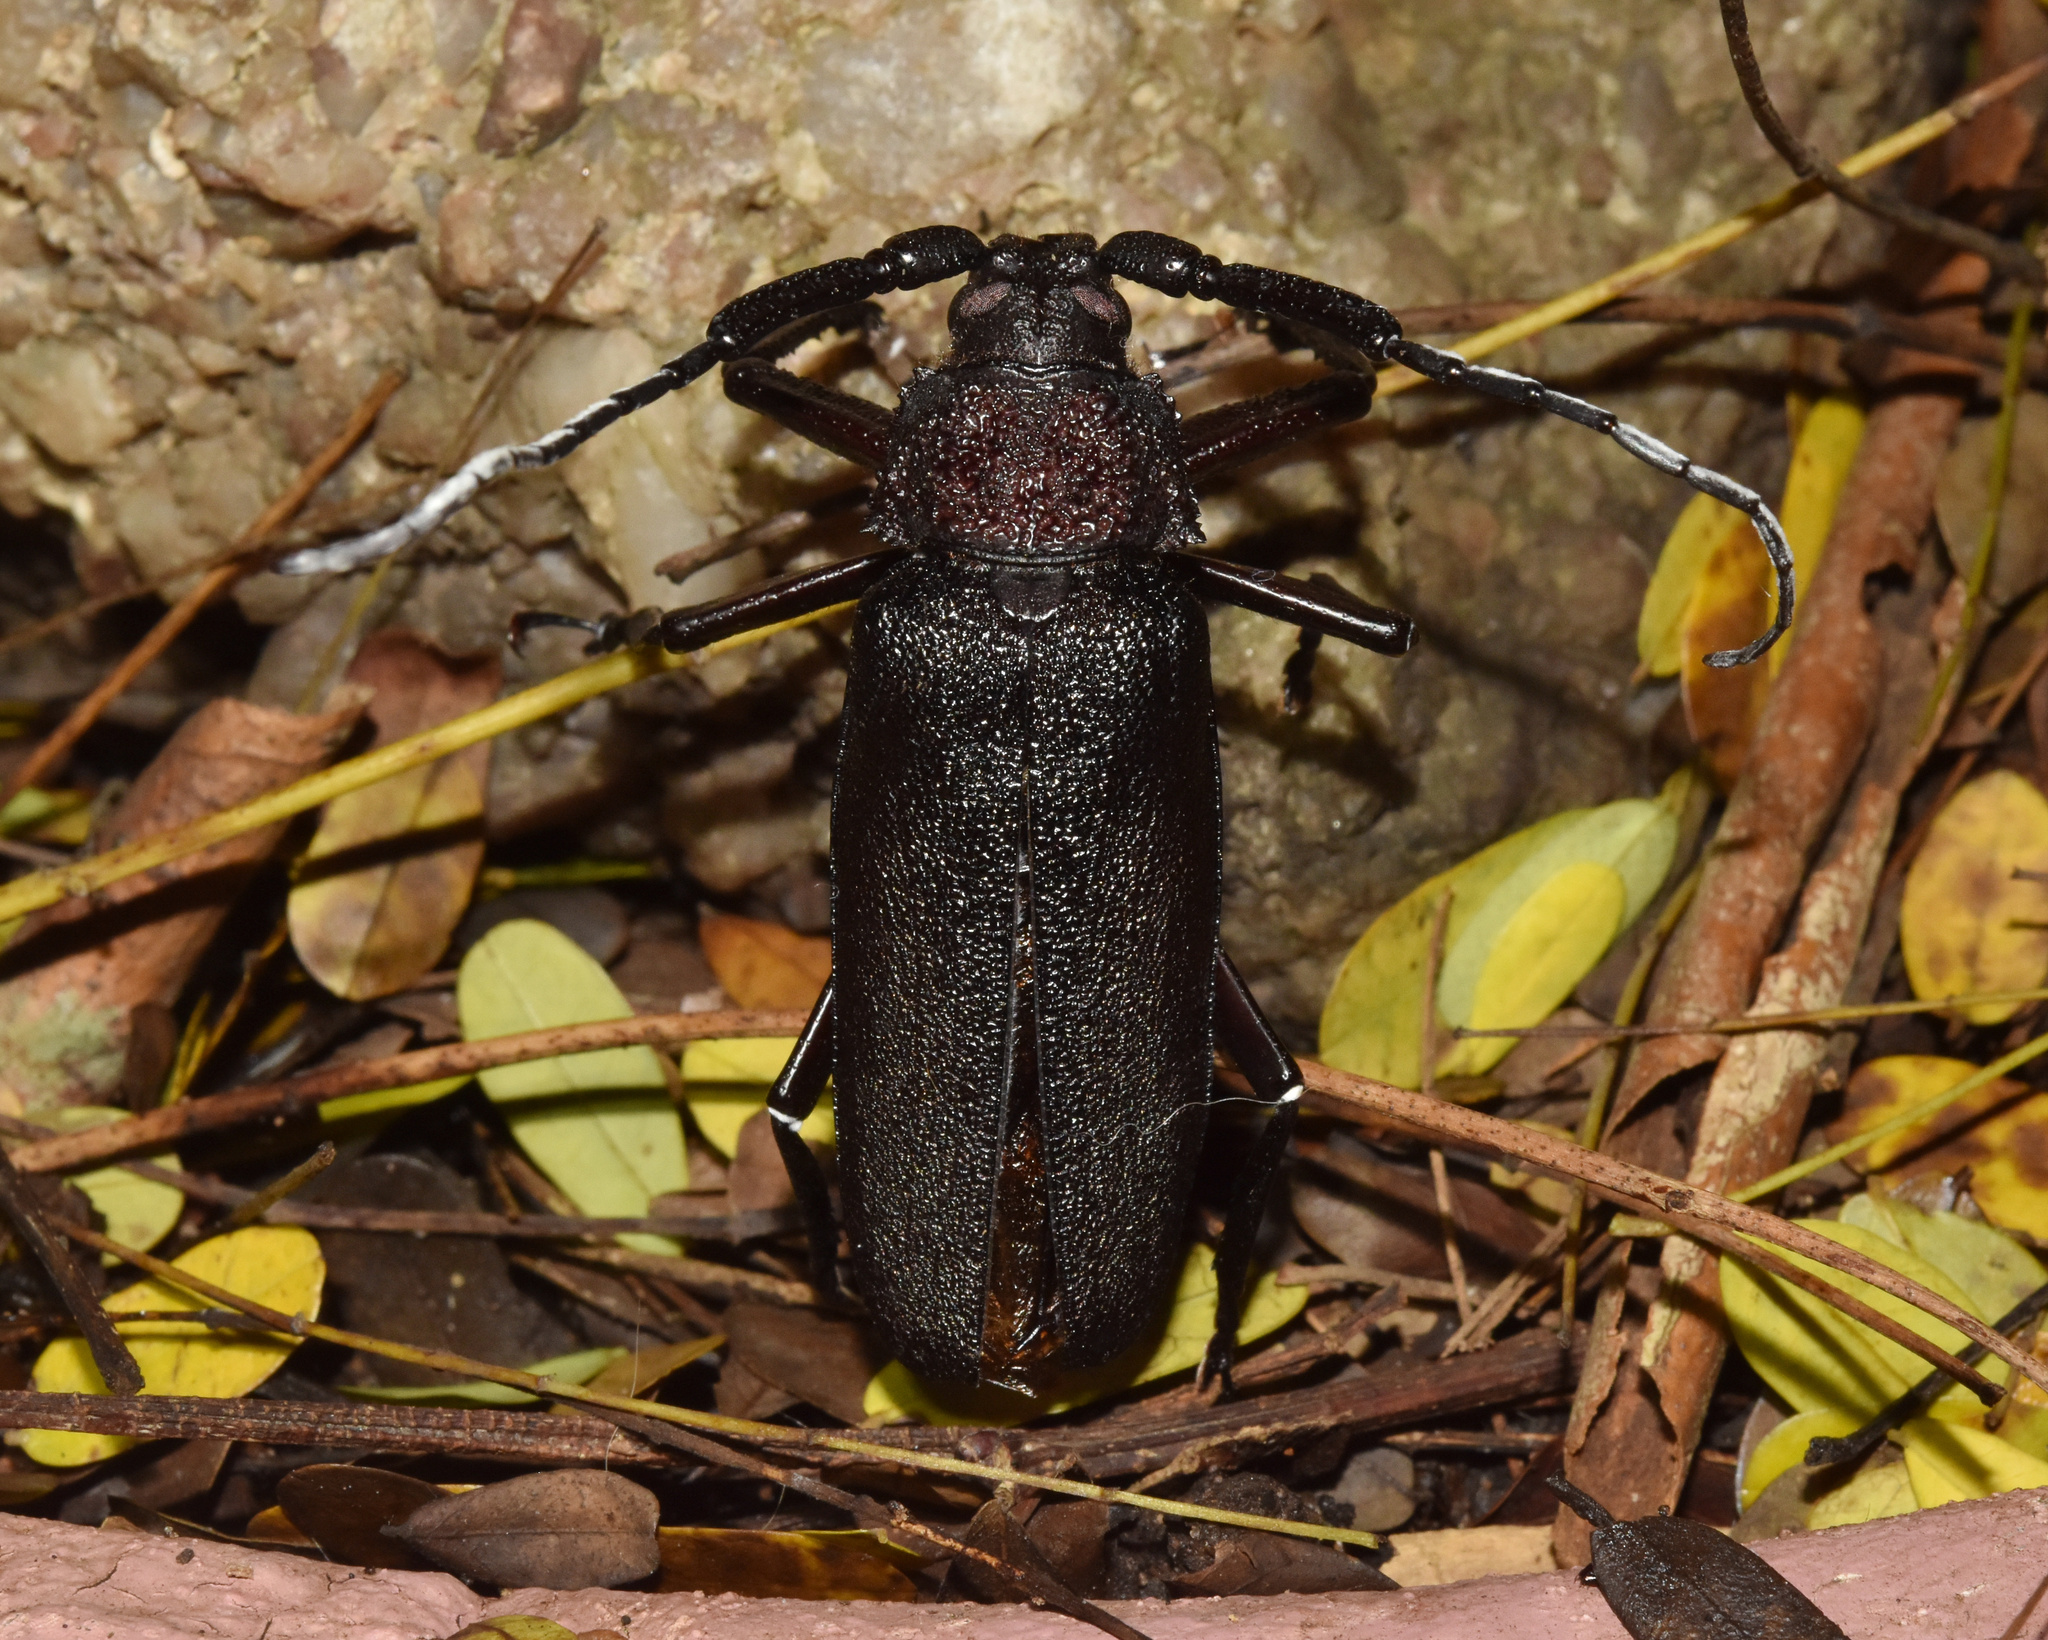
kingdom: Animalia
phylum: Arthropoda
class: Insecta
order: Coleoptera
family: Cerambycidae
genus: Paramacrotoma
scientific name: Paramacrotoma scabridorsis
